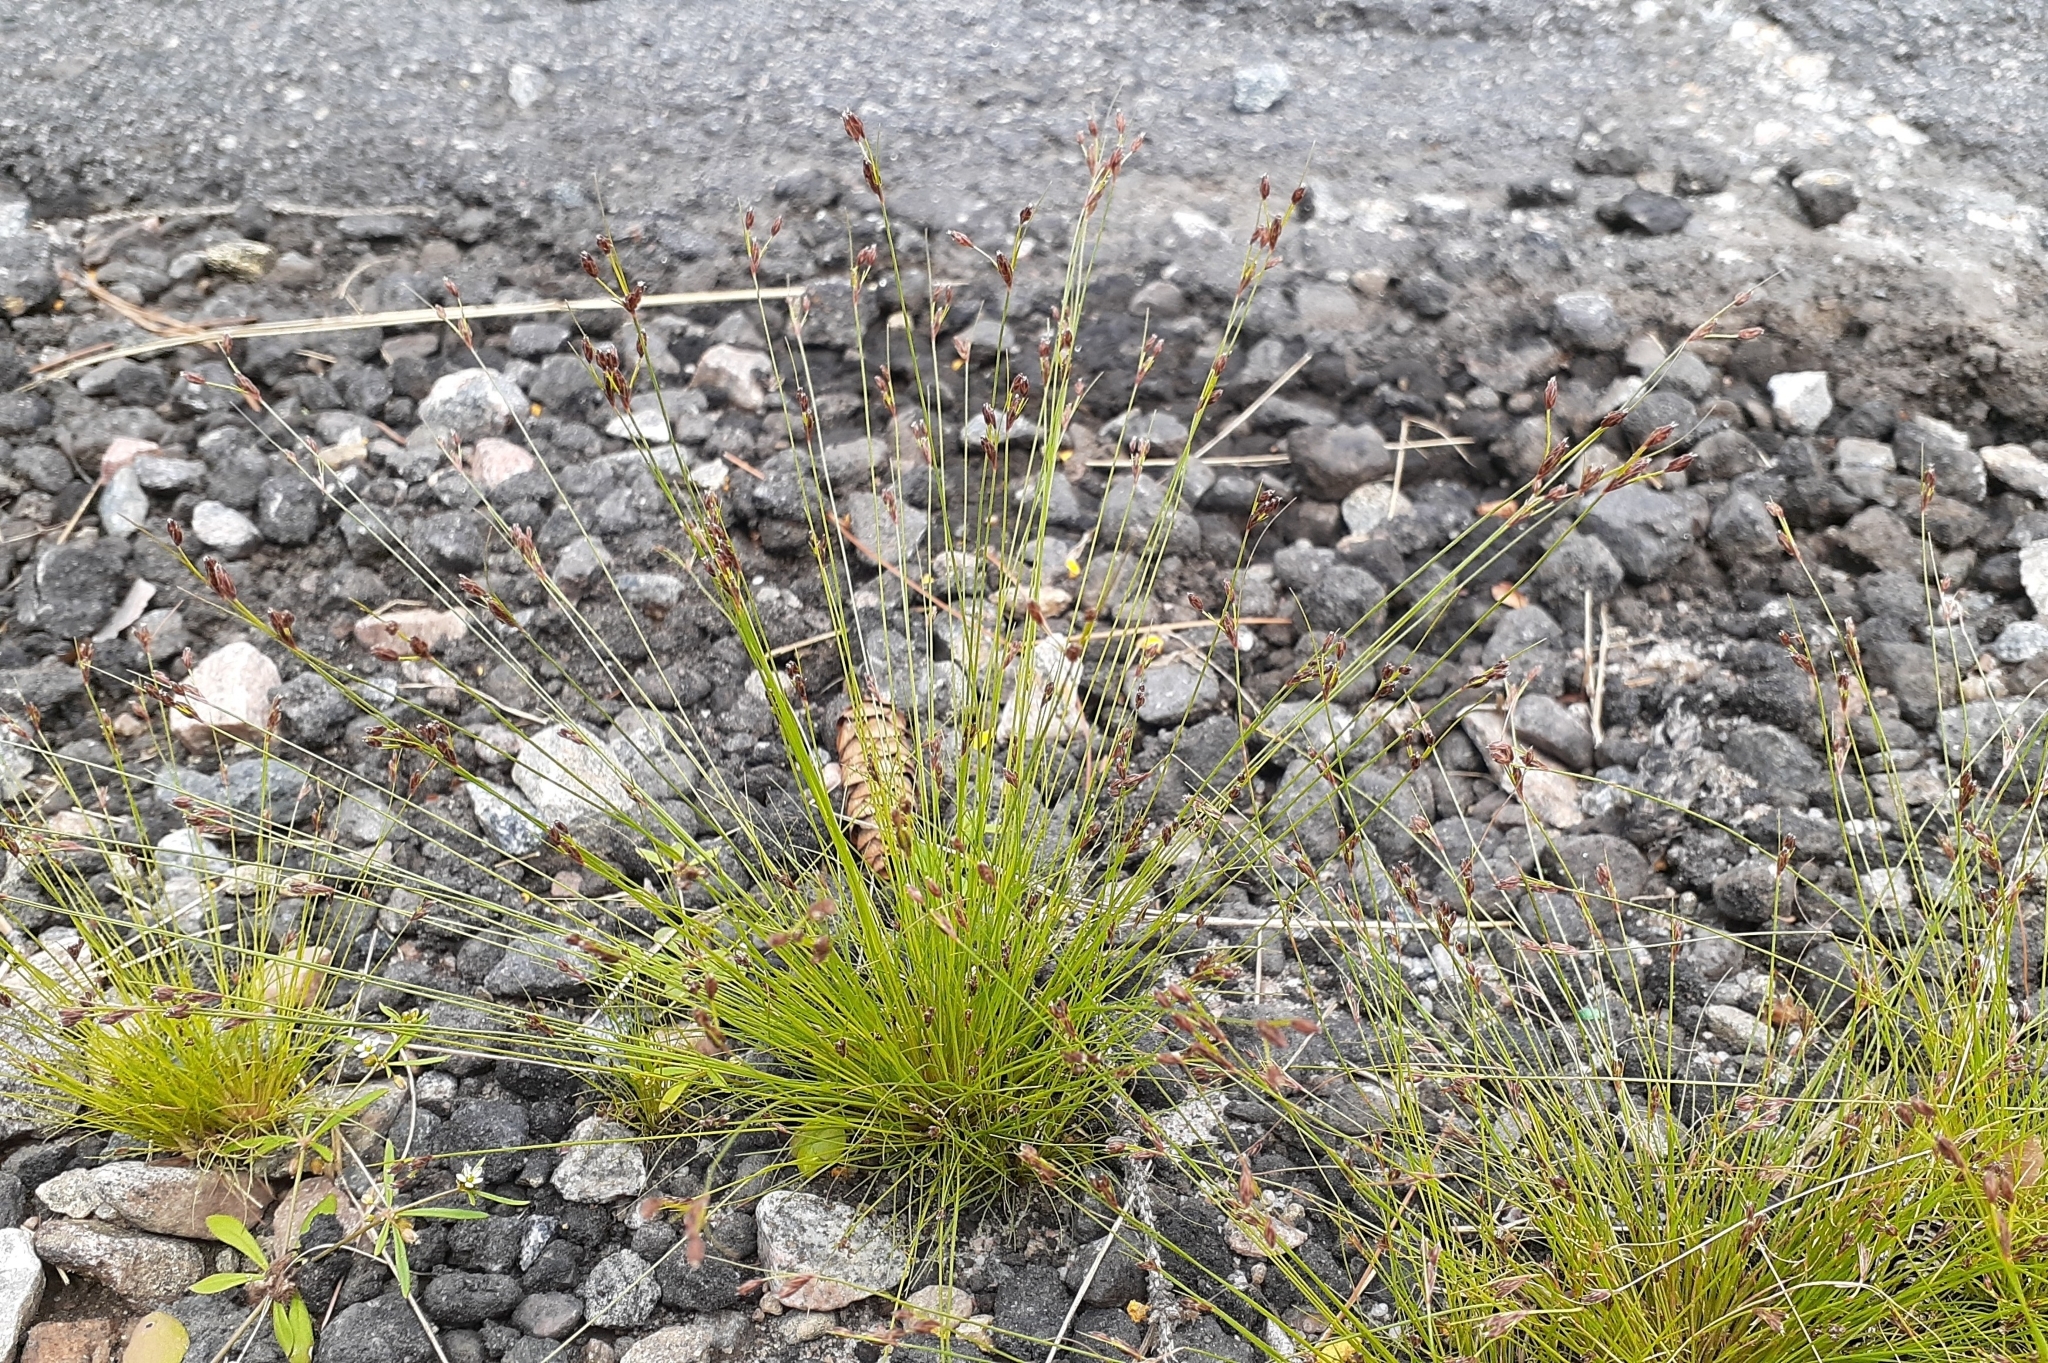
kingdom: Plantae
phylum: Tracheophyta
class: Liliopsida
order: Poales
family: Cyperaceae
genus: Bulbostylis
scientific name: Bulbostylis capillaris
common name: Densetuft hairsedge
